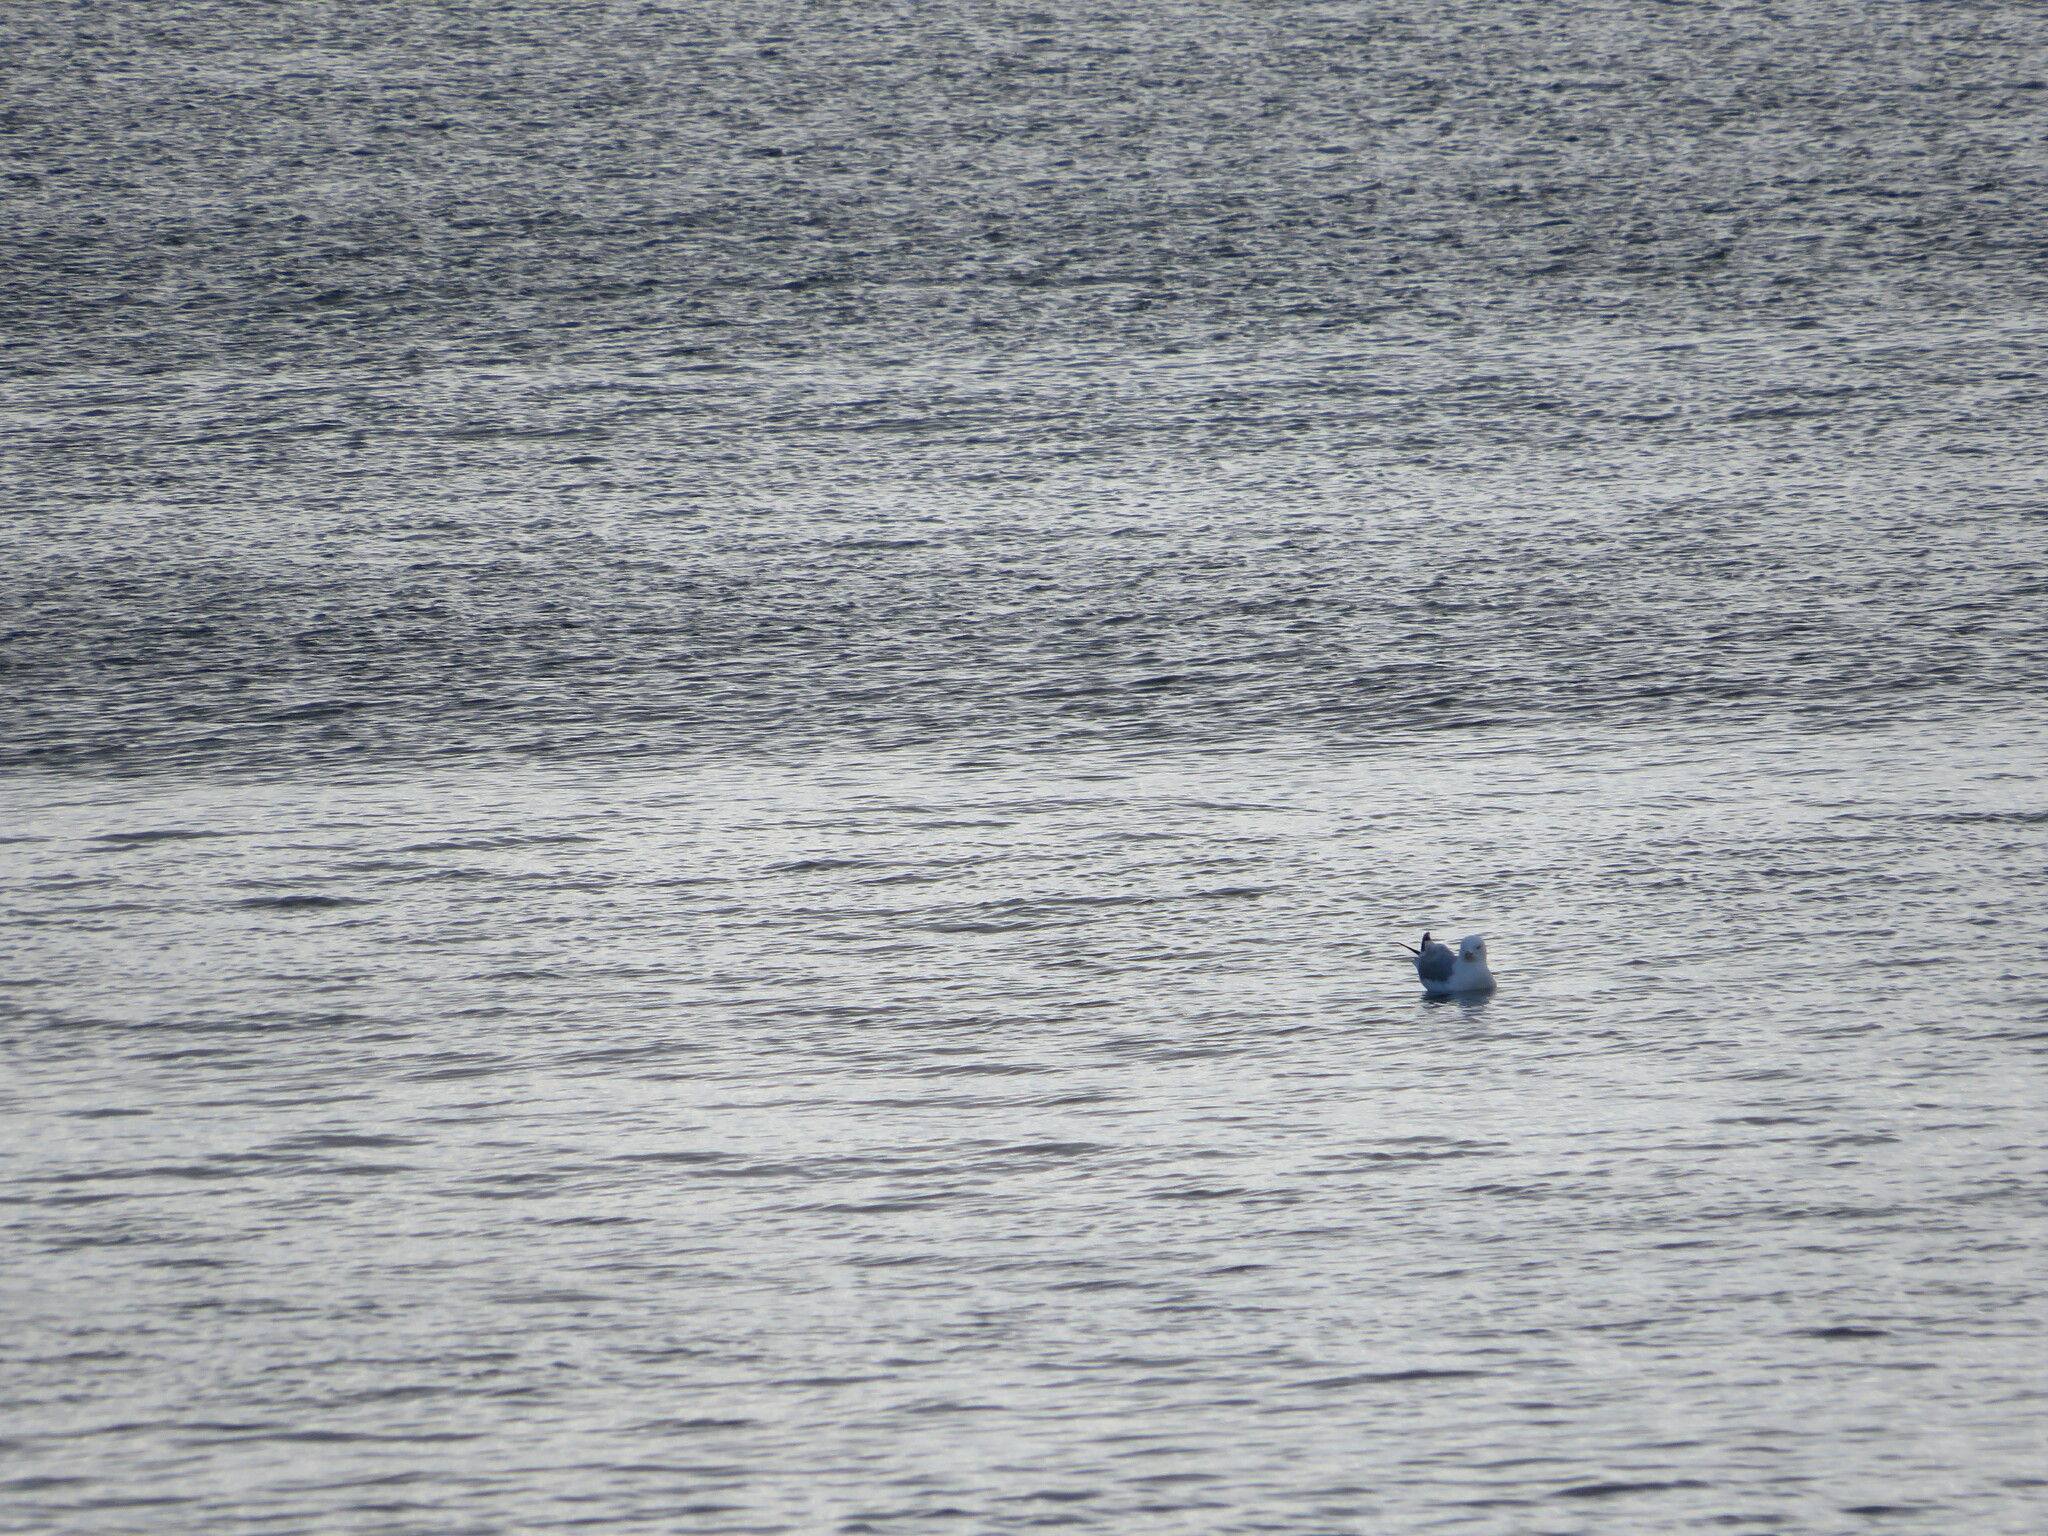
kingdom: Animalia
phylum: Chordata
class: Aves
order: Charadriiformes
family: Laridae
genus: Larus
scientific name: Larus delawarensis
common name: Ring-billed gull
